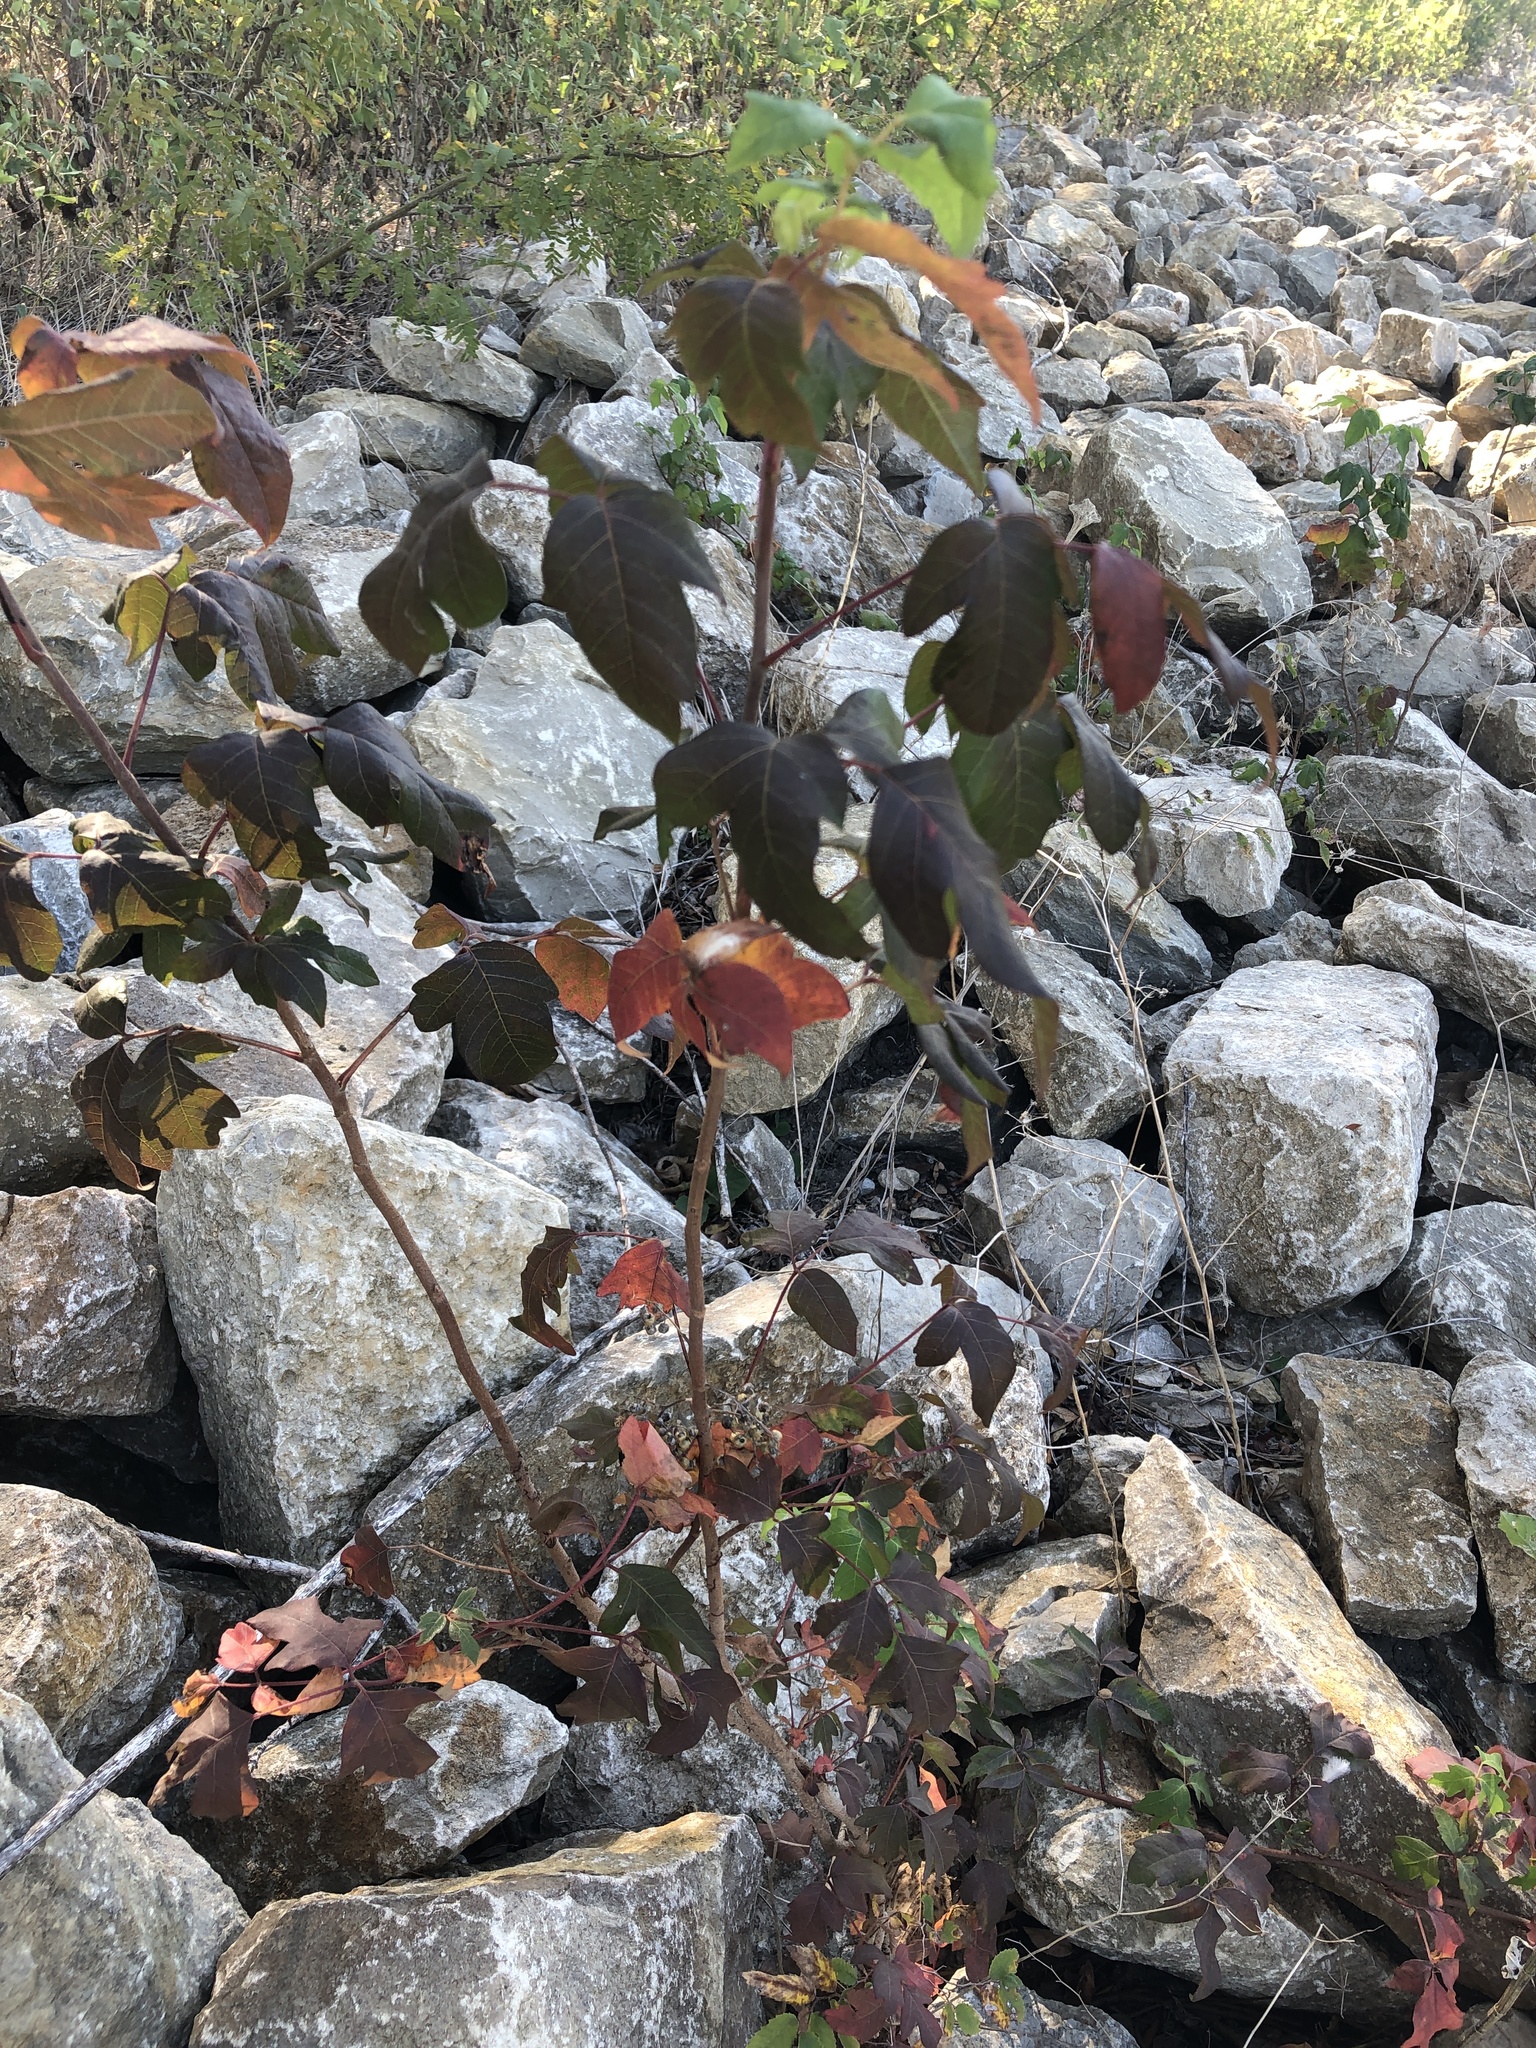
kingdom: Plantae
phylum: Tracheophyta
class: Magnoliopsida
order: Sapindales
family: Anacardiaceae
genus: Toxicodendron
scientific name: Toxicodendron radicans
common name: Poison ivy
